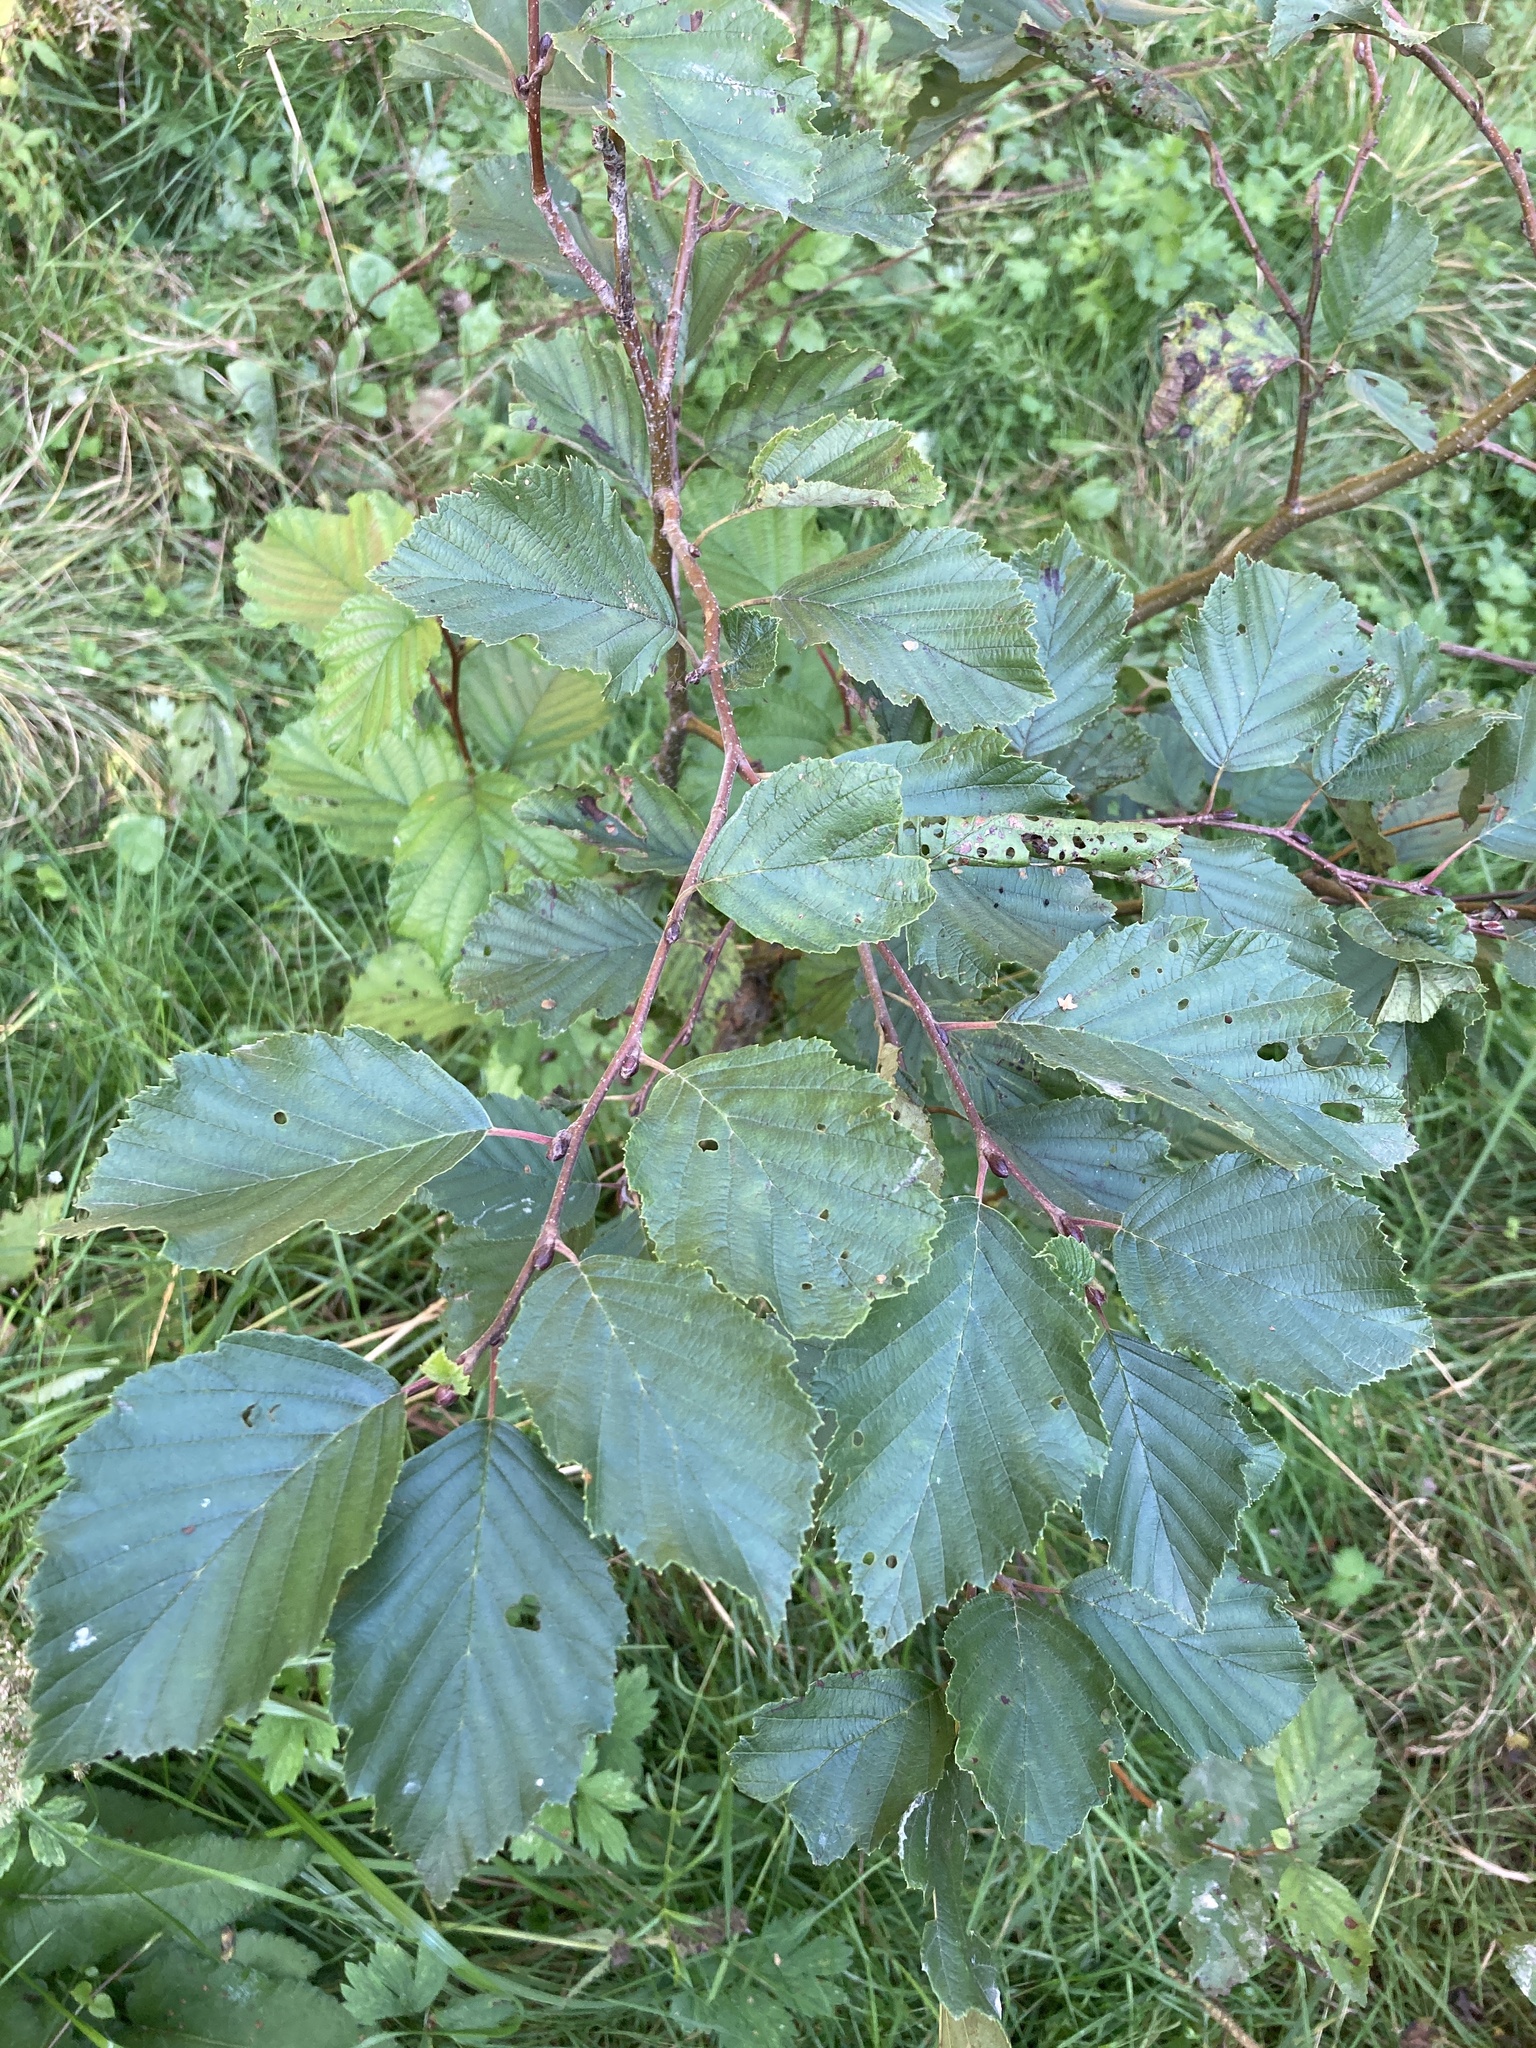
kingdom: Plantae
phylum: Tracheophyta
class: Magnoliopsida
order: Fagales
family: Betulaceae
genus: Alnus
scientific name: Alnus incana
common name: Grey alder
